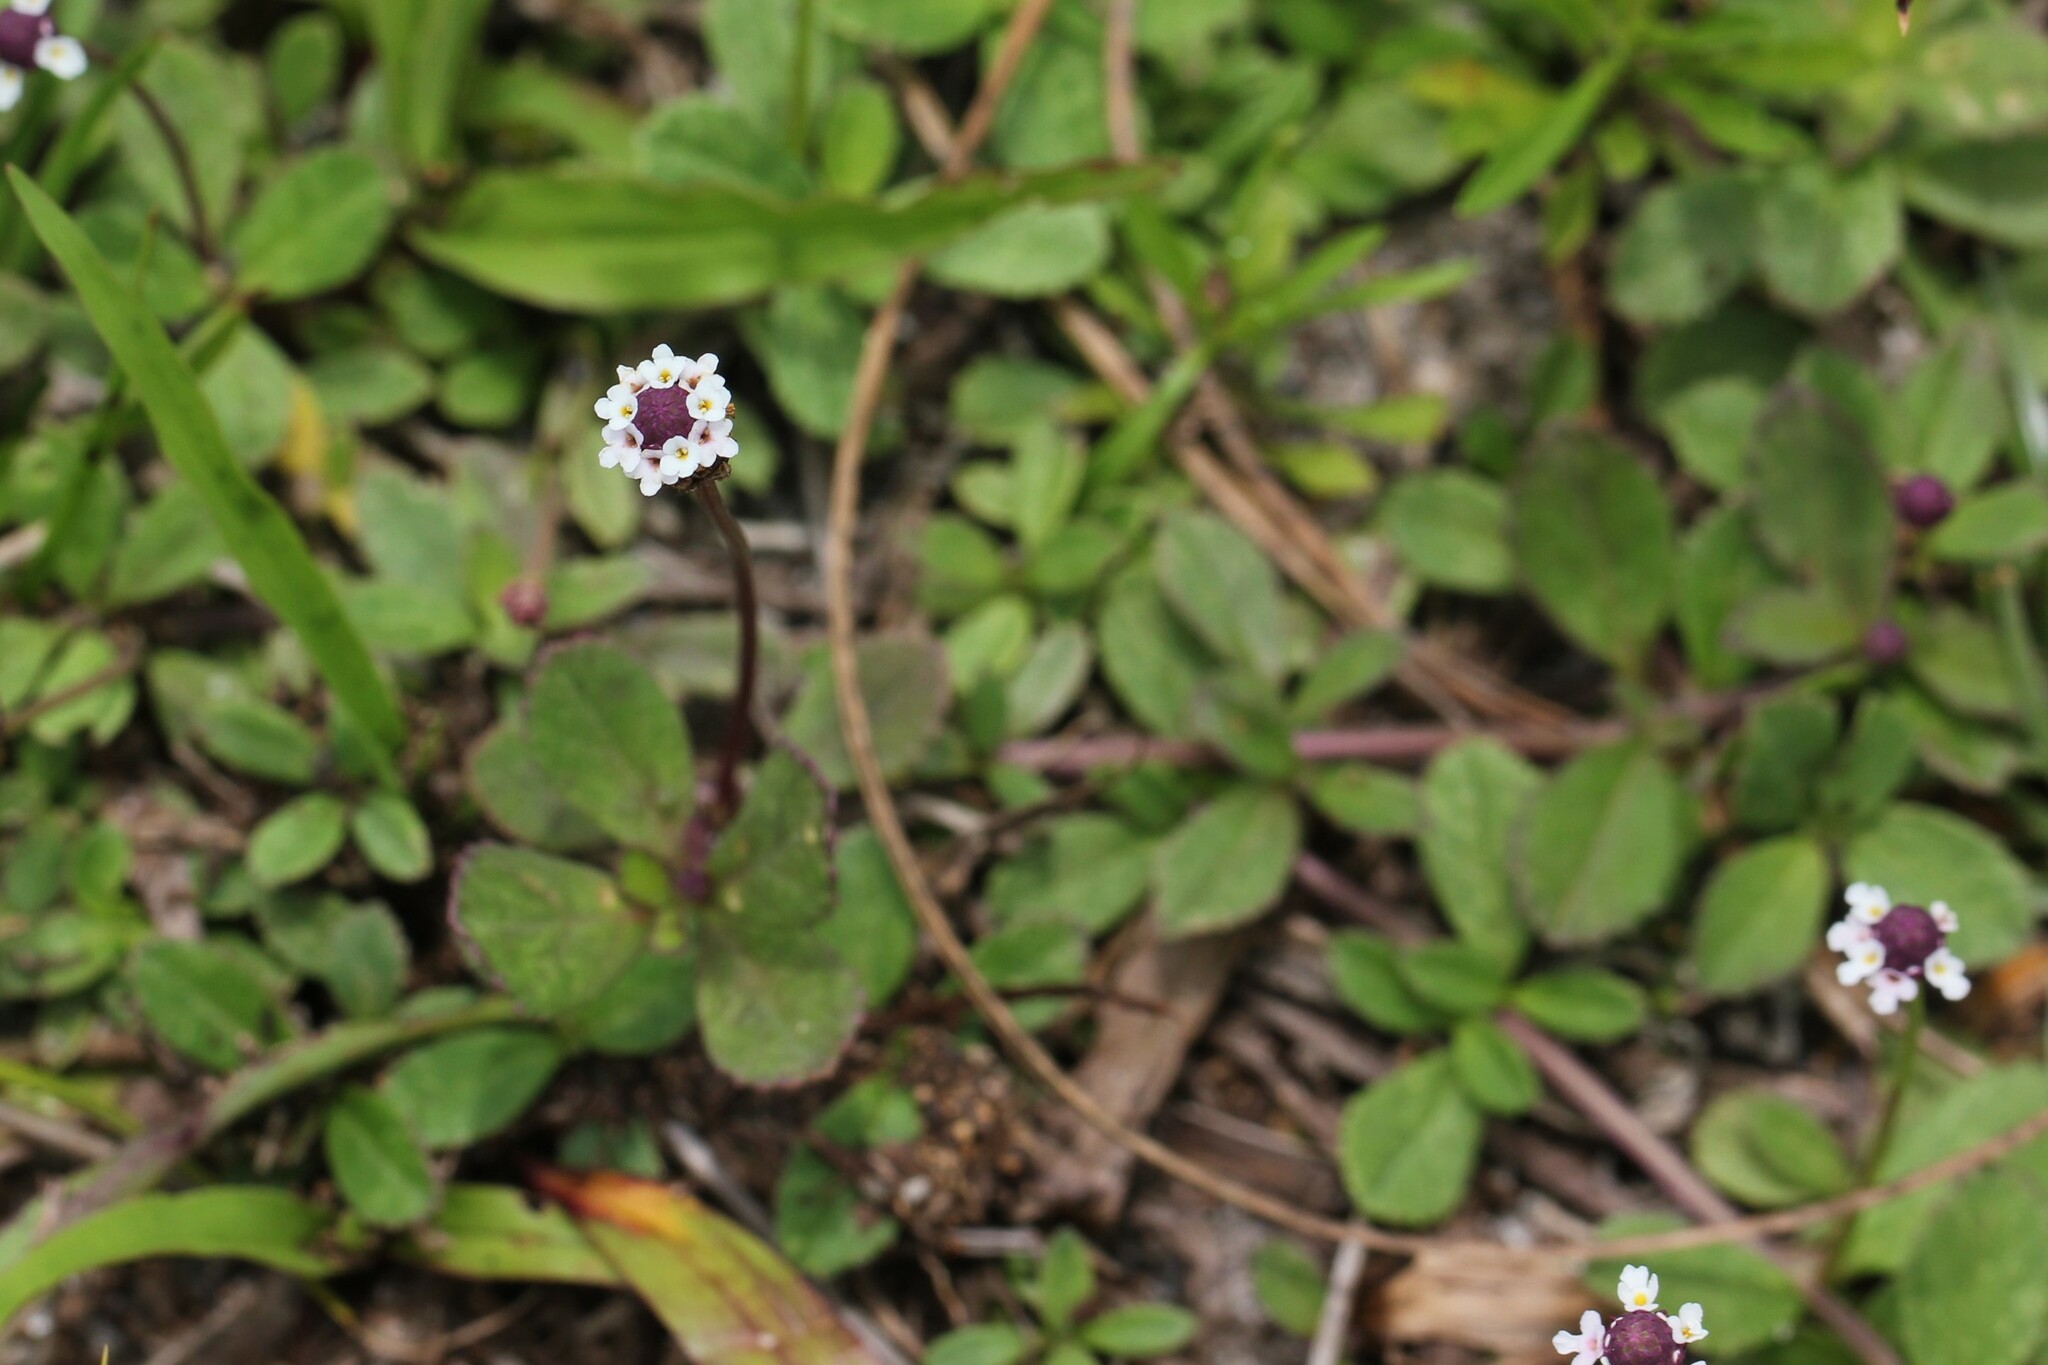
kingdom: Plantae
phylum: Tracheophyta
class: Magnoliopsida
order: Lamiales
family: Verbenaceae
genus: Phyla
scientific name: Phyla nodiflora
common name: Frogfruit
